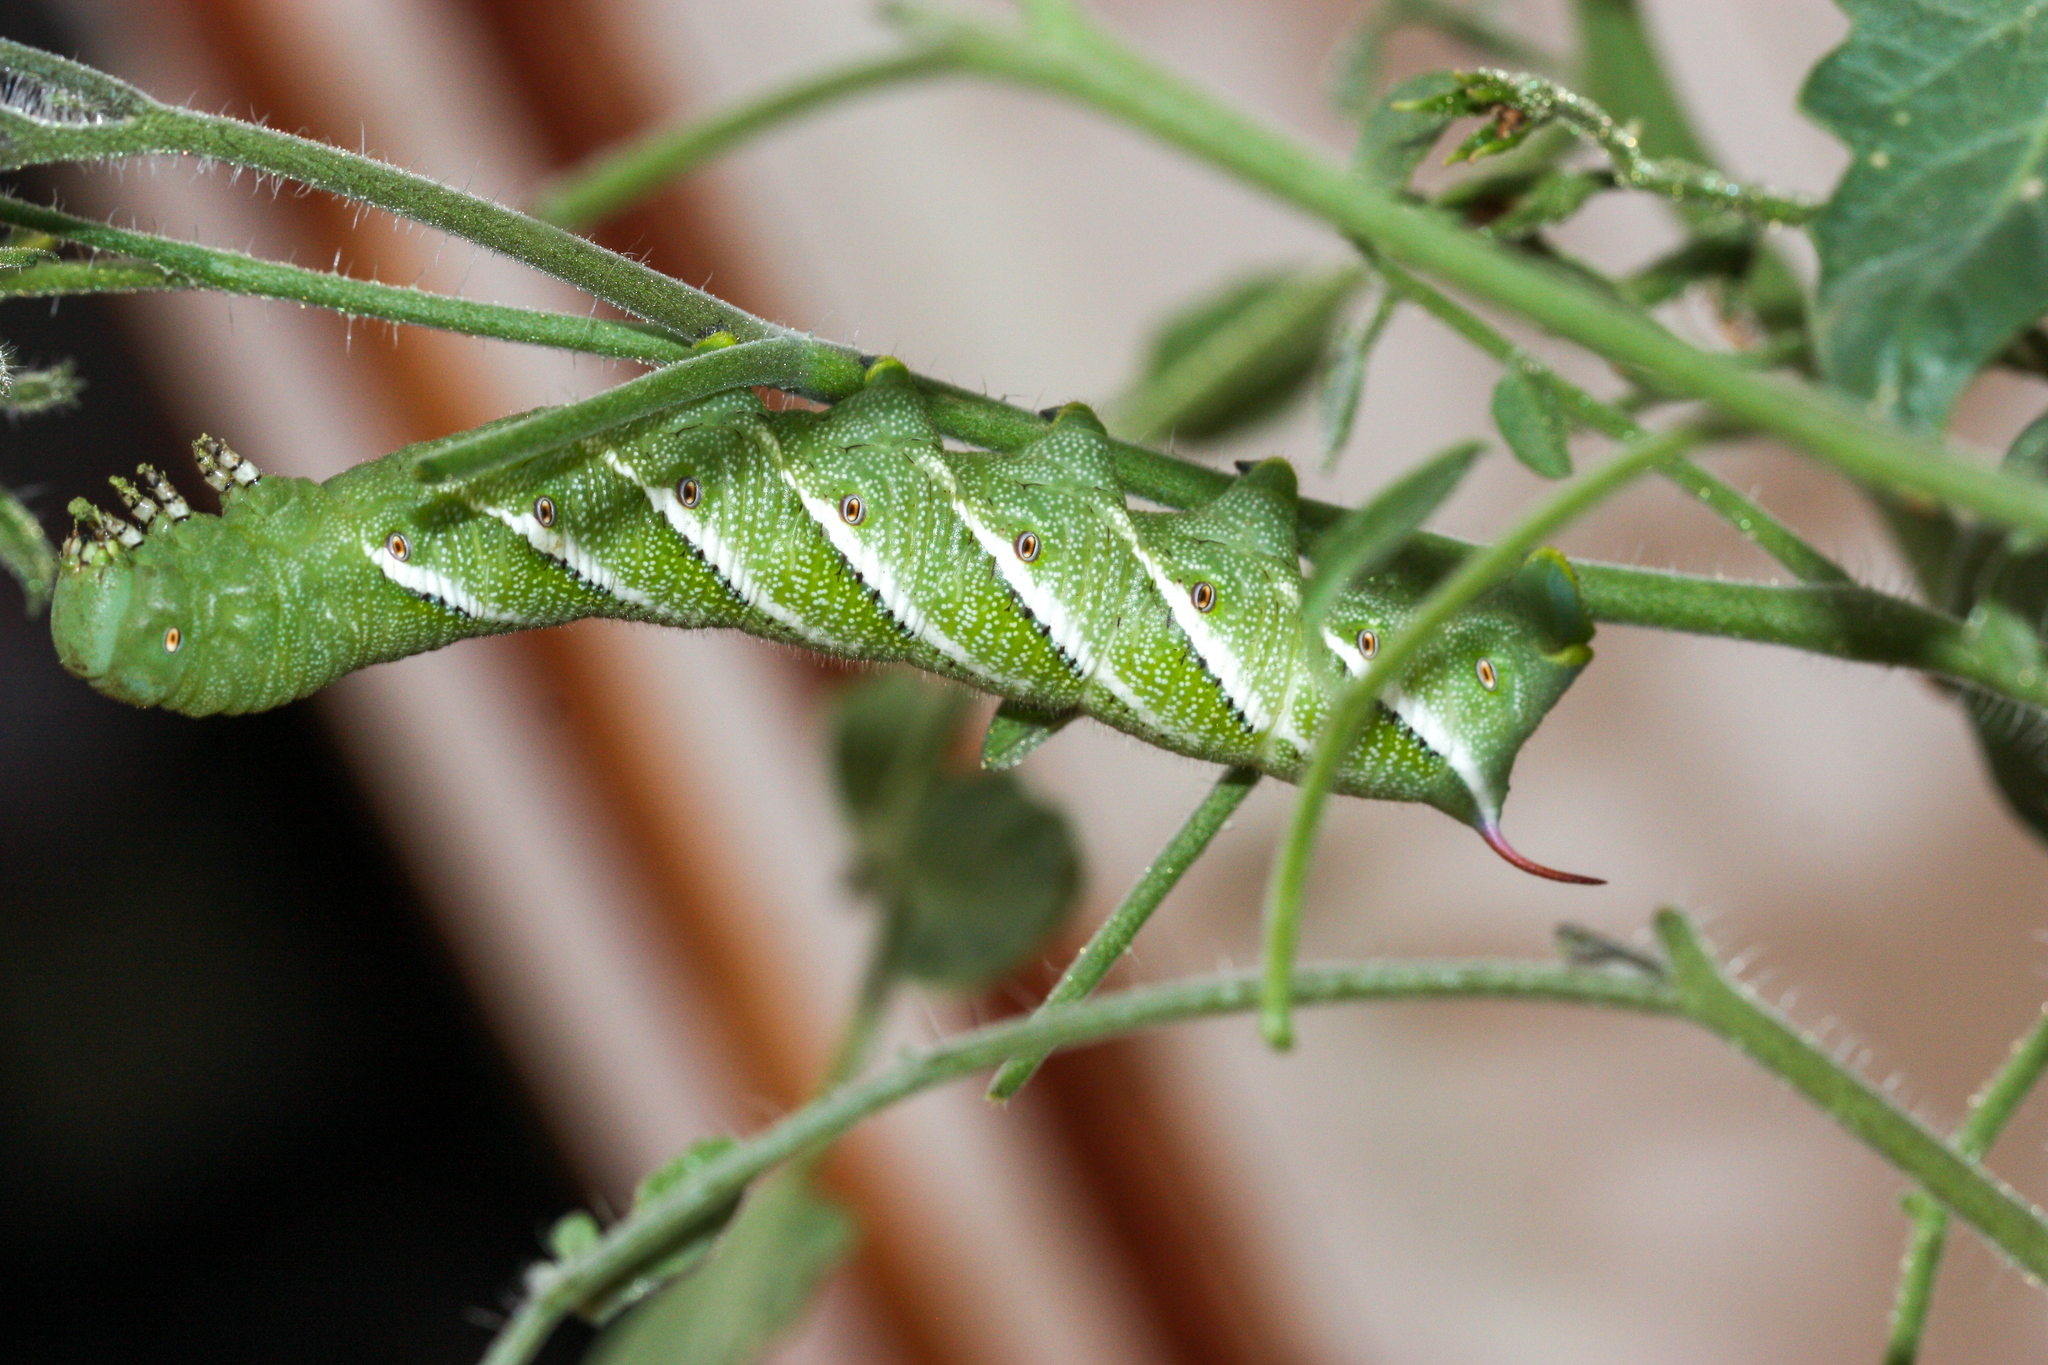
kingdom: Animalia
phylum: Arthropoda
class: Insecta
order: Lepidoptera
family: Sphingidae
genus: Manduca
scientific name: Manduca sexta
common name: Carolina sphinx
